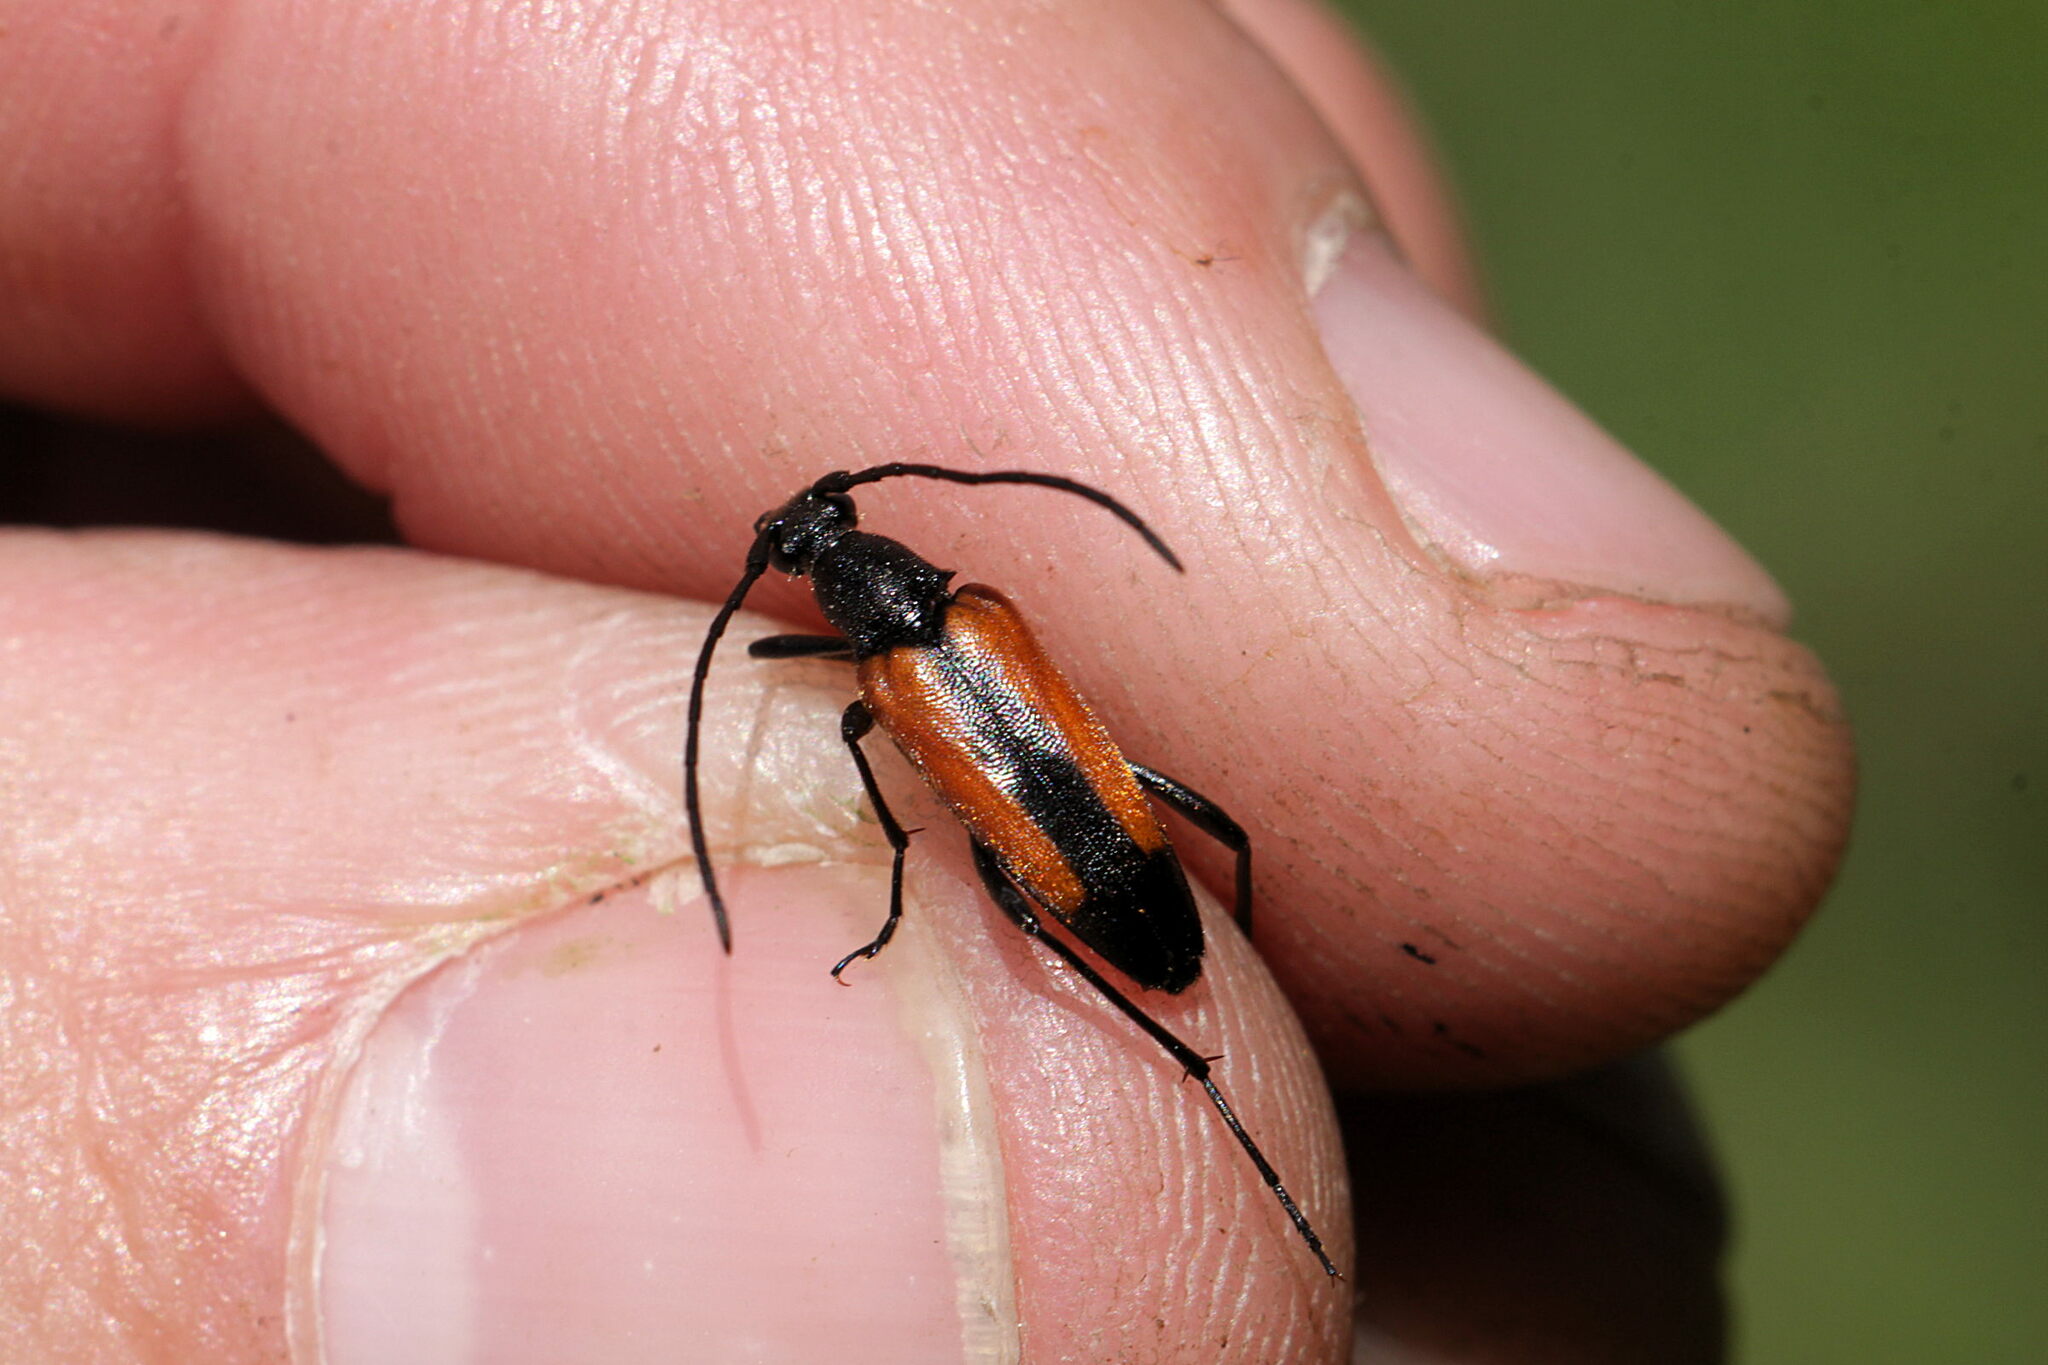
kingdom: Animalia
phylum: Arthropoda
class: Insecta
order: Coleoptera
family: Cerambycidae
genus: Stenurella
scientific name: Stenurella melanura
